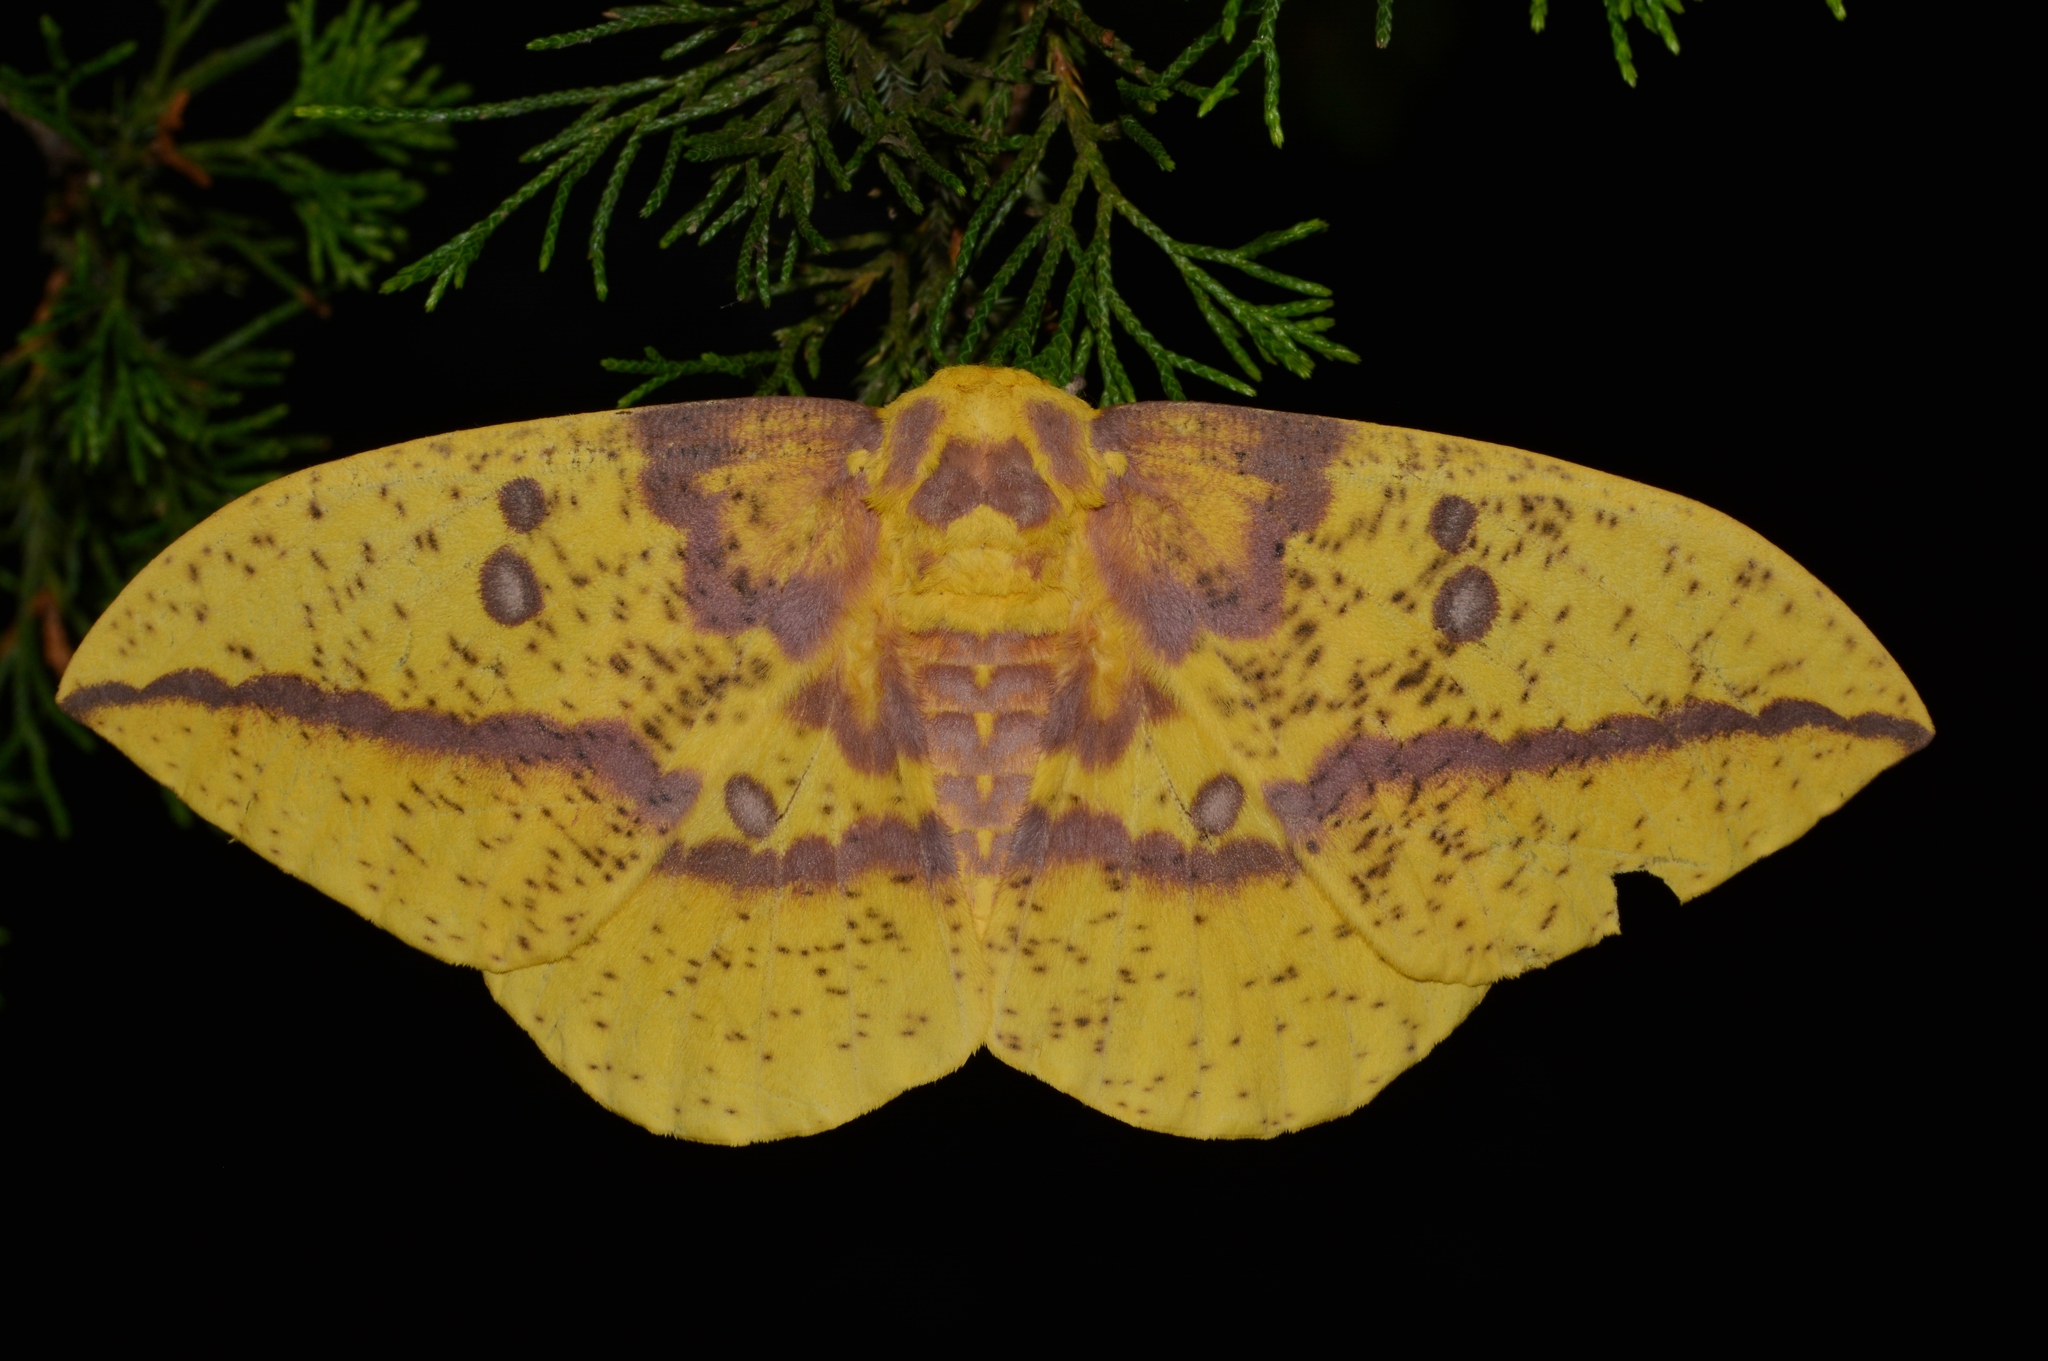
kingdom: Animalia
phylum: Arthropoda
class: Insecta
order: Lepidoptera
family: Saturniidae
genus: Eacles
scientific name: Eacles imperialis
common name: Imperial moth
